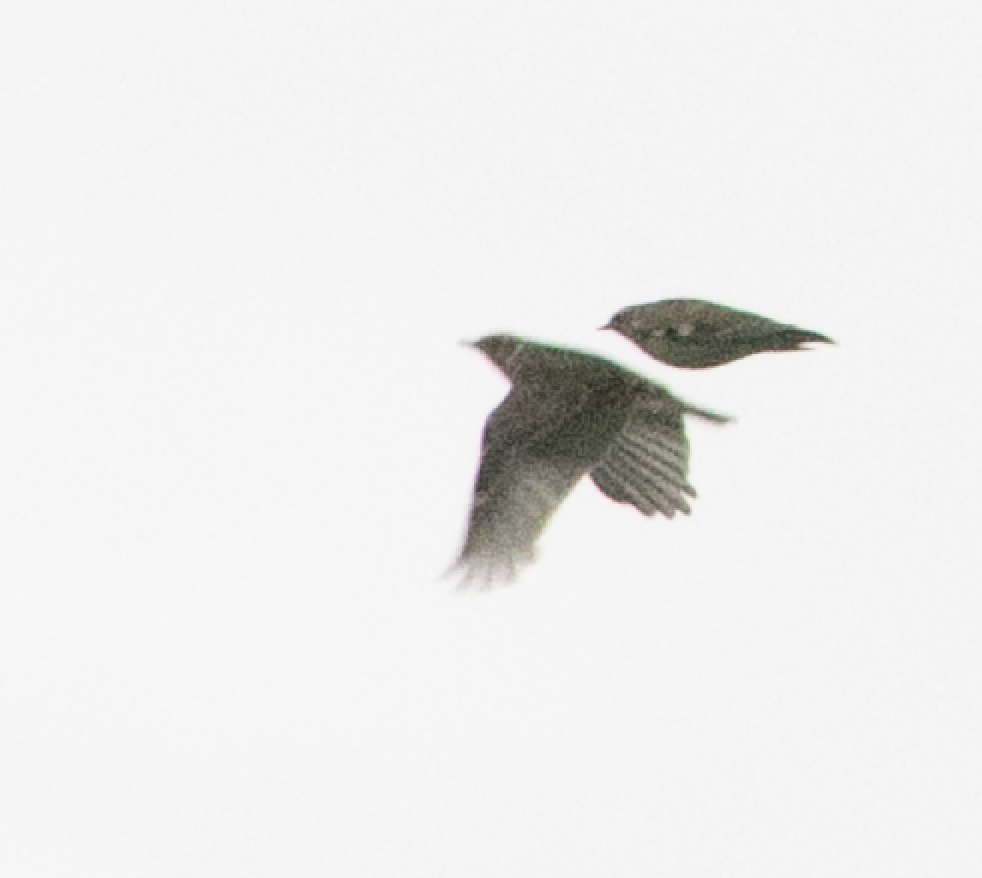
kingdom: Animalia
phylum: Chordata
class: Aves
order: Passeriformes
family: Alaudidae
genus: Lullula
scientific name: Lullula arborea
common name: Woodlark
